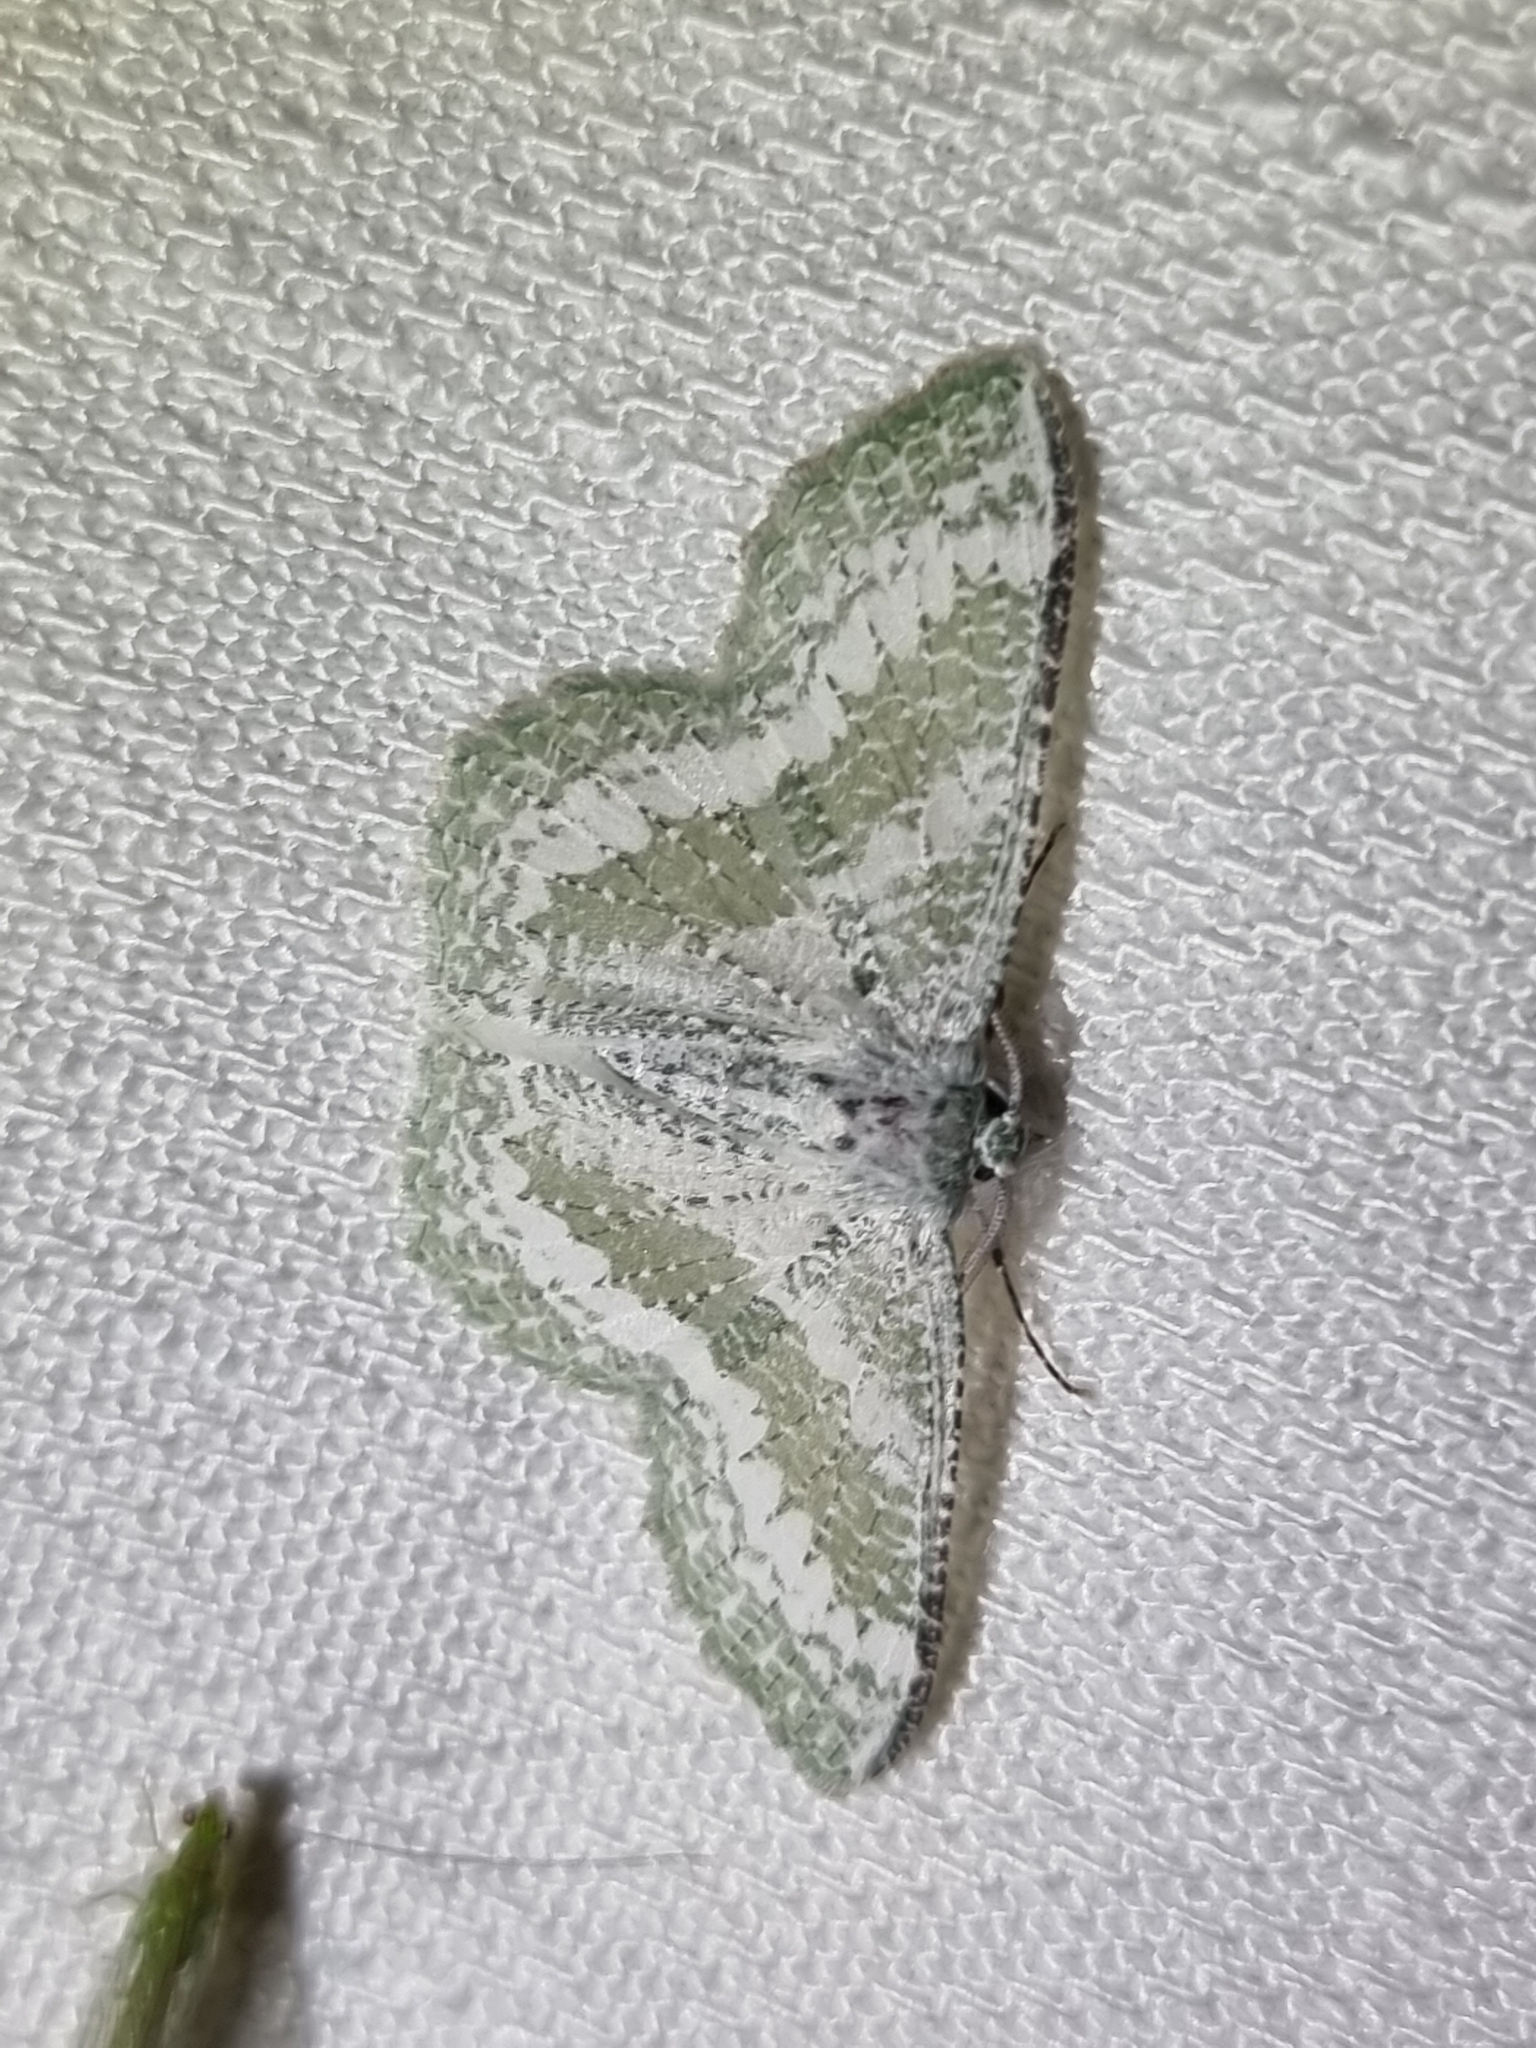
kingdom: Animalia
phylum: Arthropoda
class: Insecta
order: Lepidoptera
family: Geometridae
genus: Eucyclodes
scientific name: Eucyclodes pieroides
